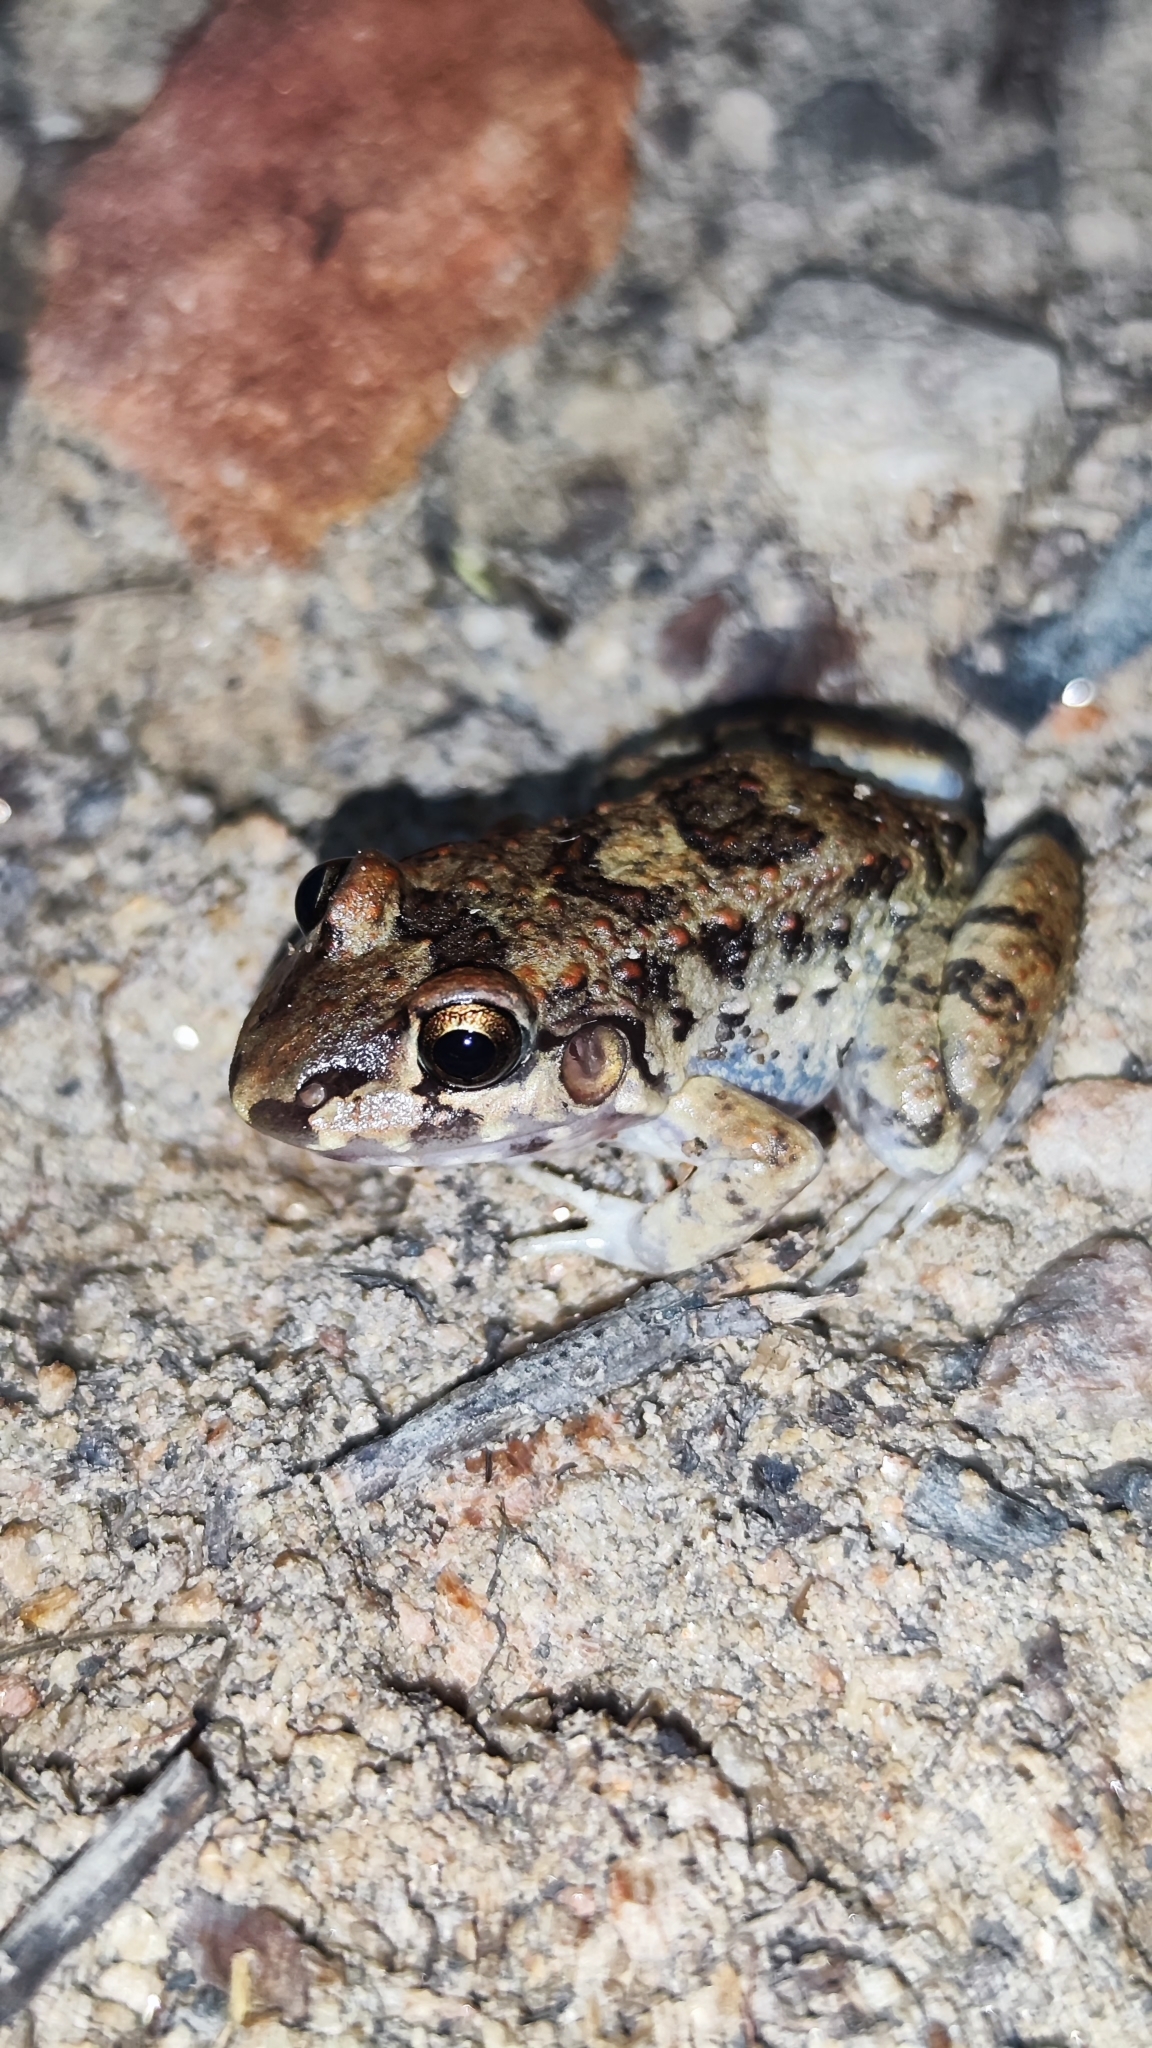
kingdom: Animalia
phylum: Chordata
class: Amphibia
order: Anura
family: Leptodactylidae
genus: Leptodactylus
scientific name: Leptodactylus troglodytes
